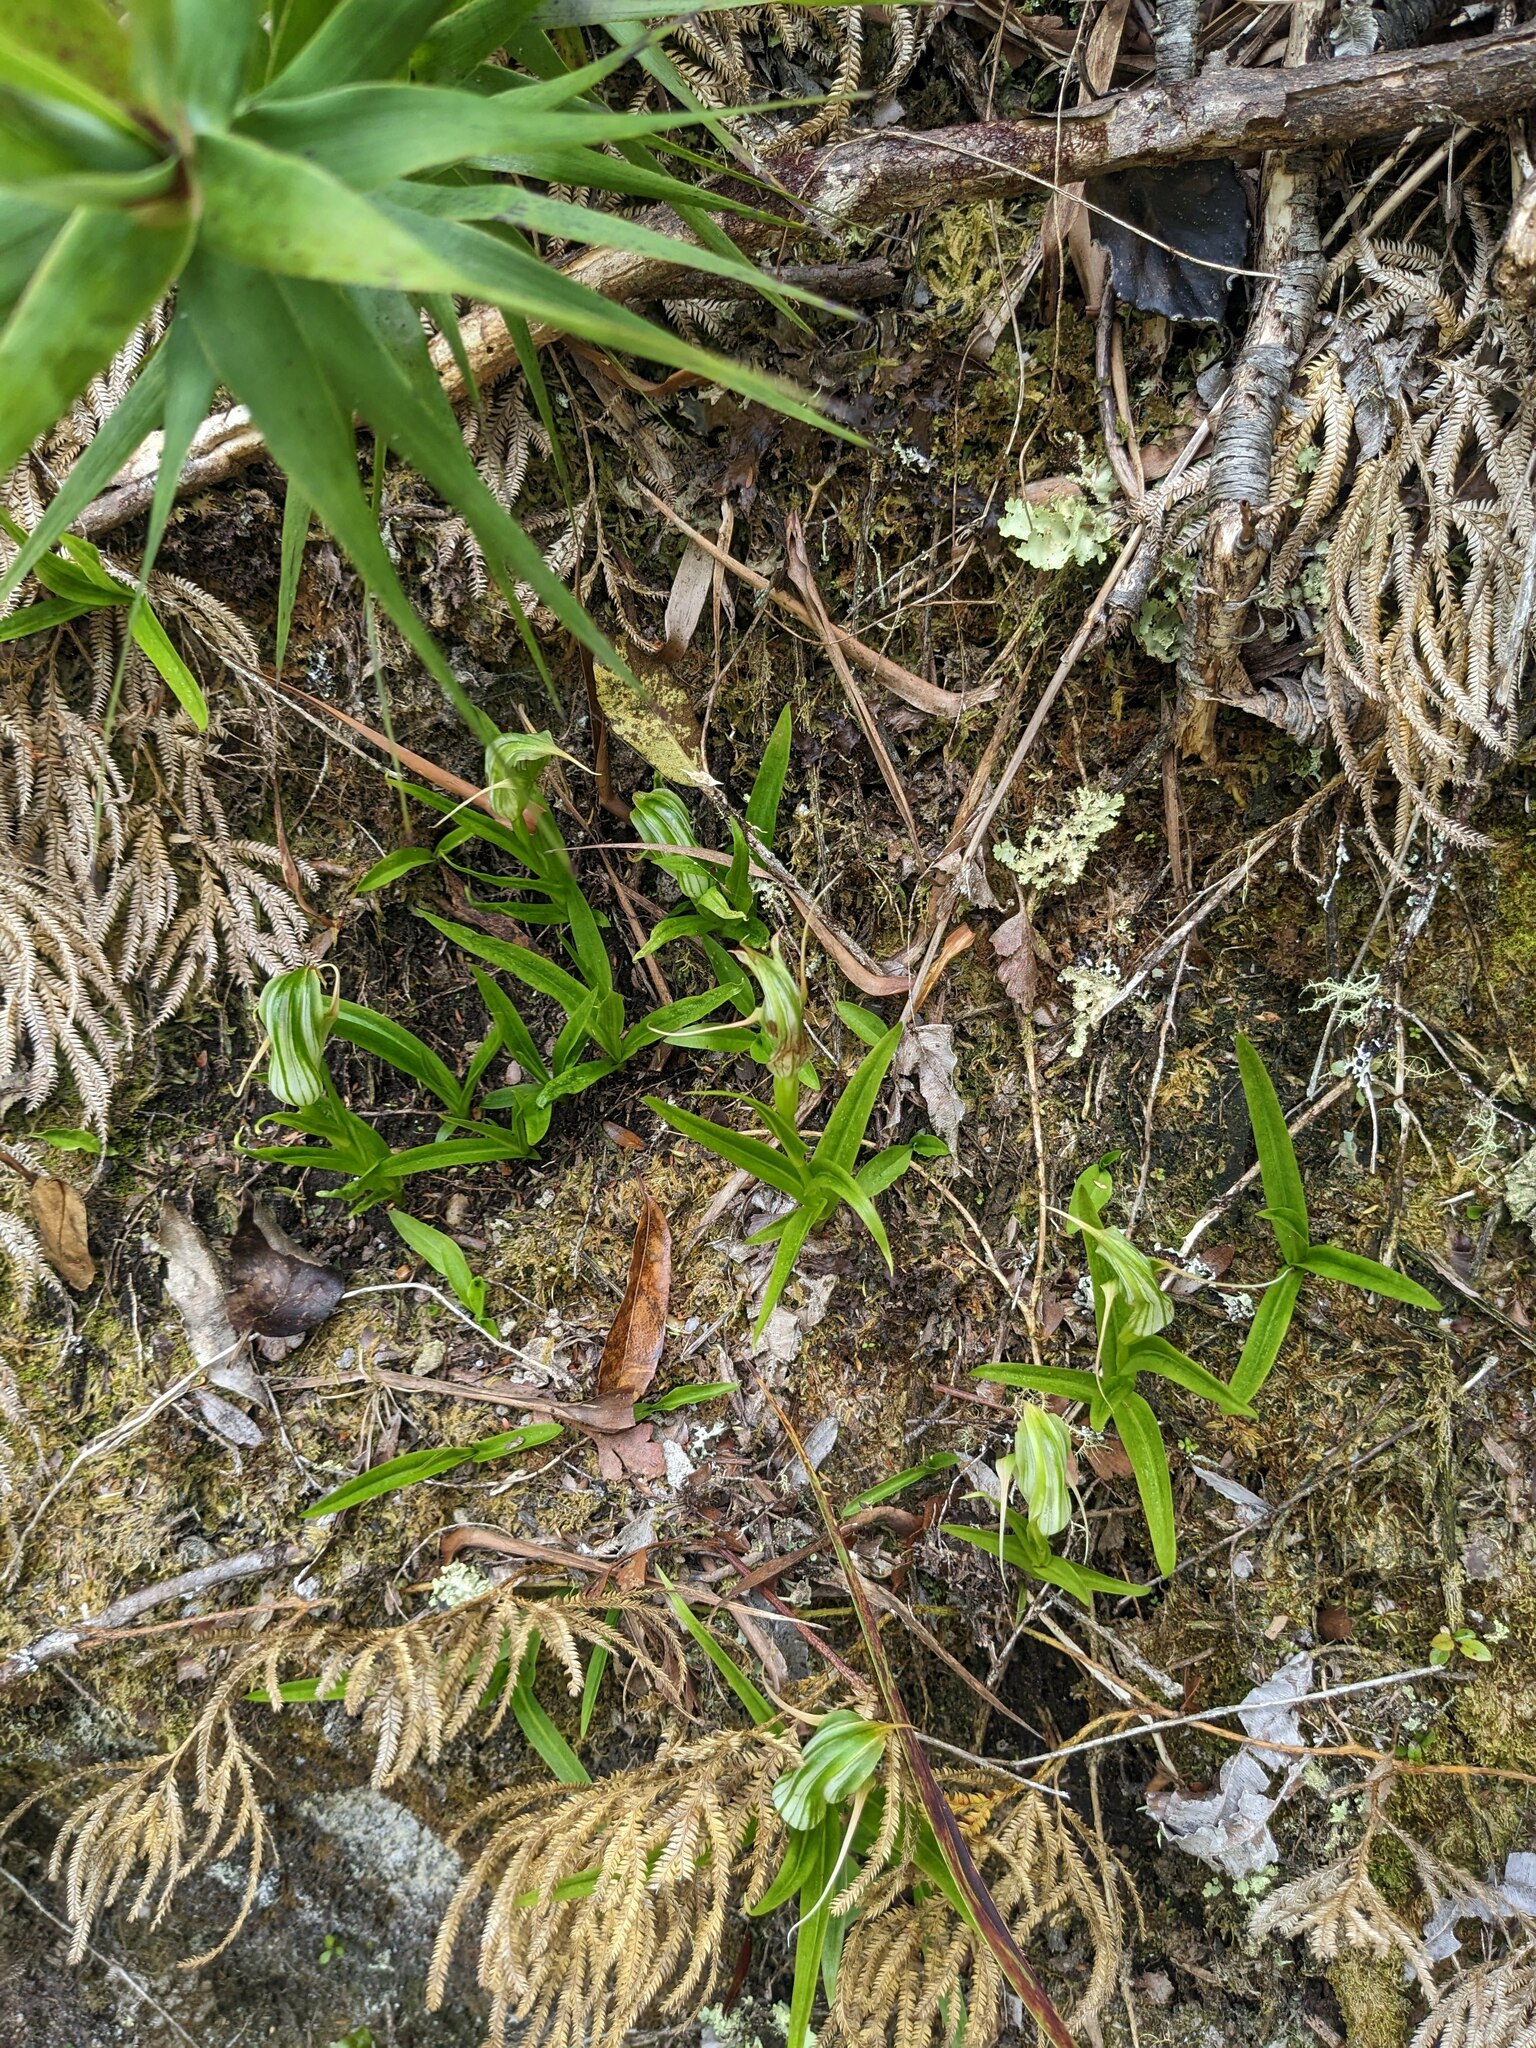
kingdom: Plantae
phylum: Tracheophyta
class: Liliopsida
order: Asparagales
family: Orchidaceae
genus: Pterostylis
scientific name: Pterostylis patens
